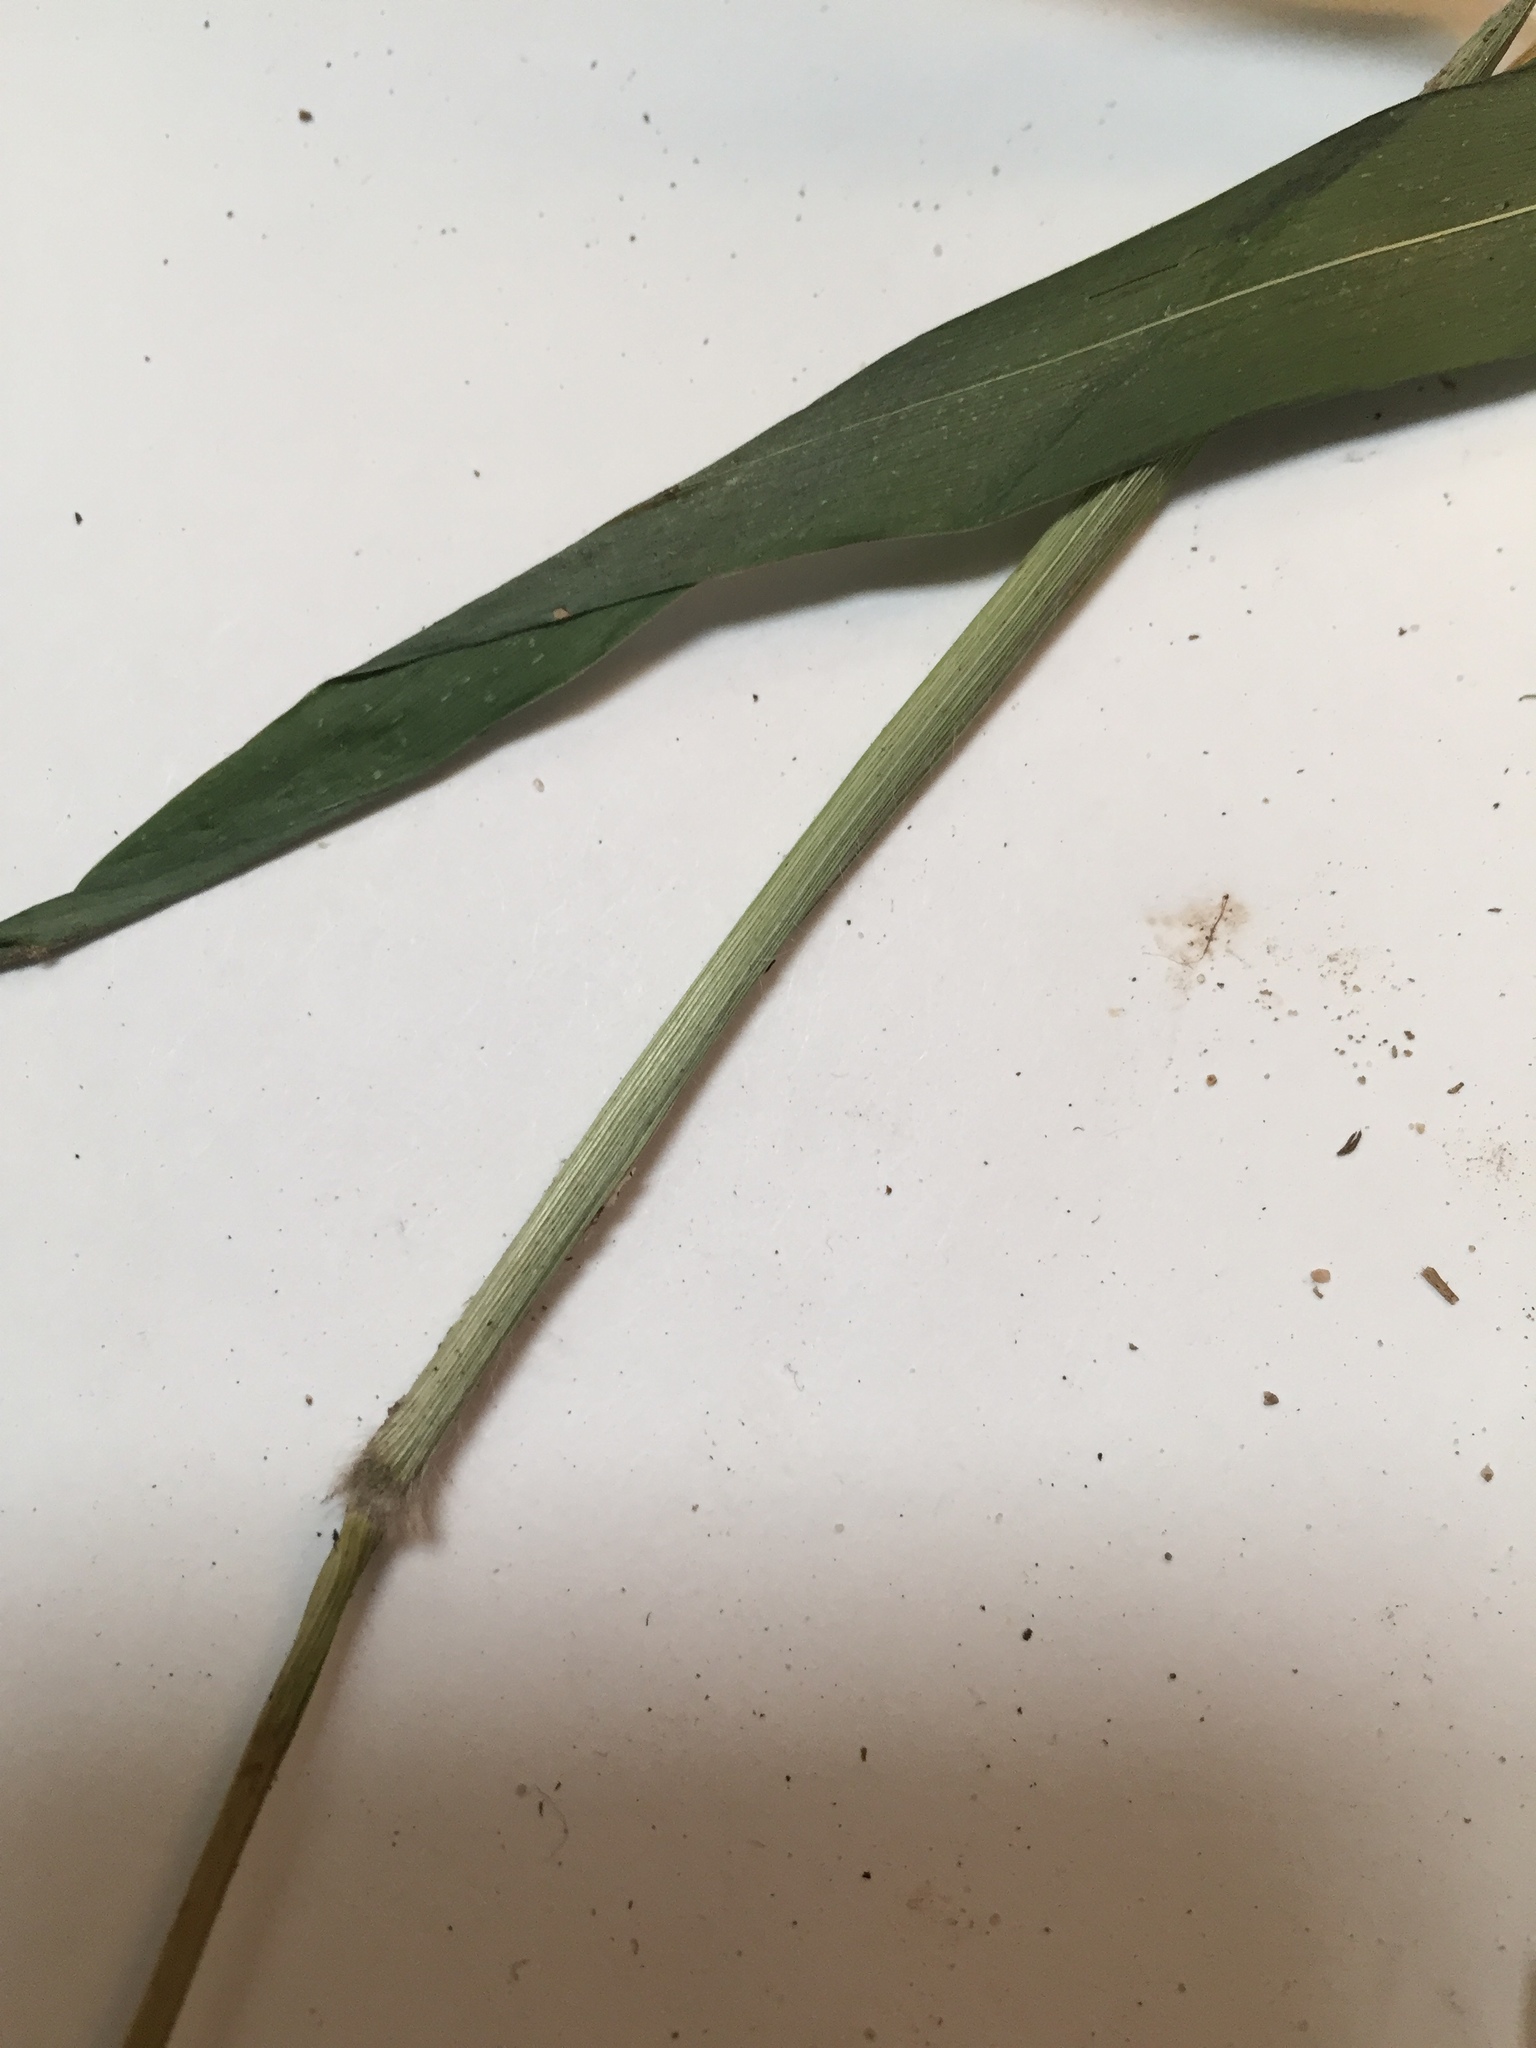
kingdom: Plantae
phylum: Tracheophyta
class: Liliopsida
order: Poales
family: Poaceae
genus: Dichanthelium
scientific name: Dichanthelium microcarpon
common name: Small-fruited witchgrass
